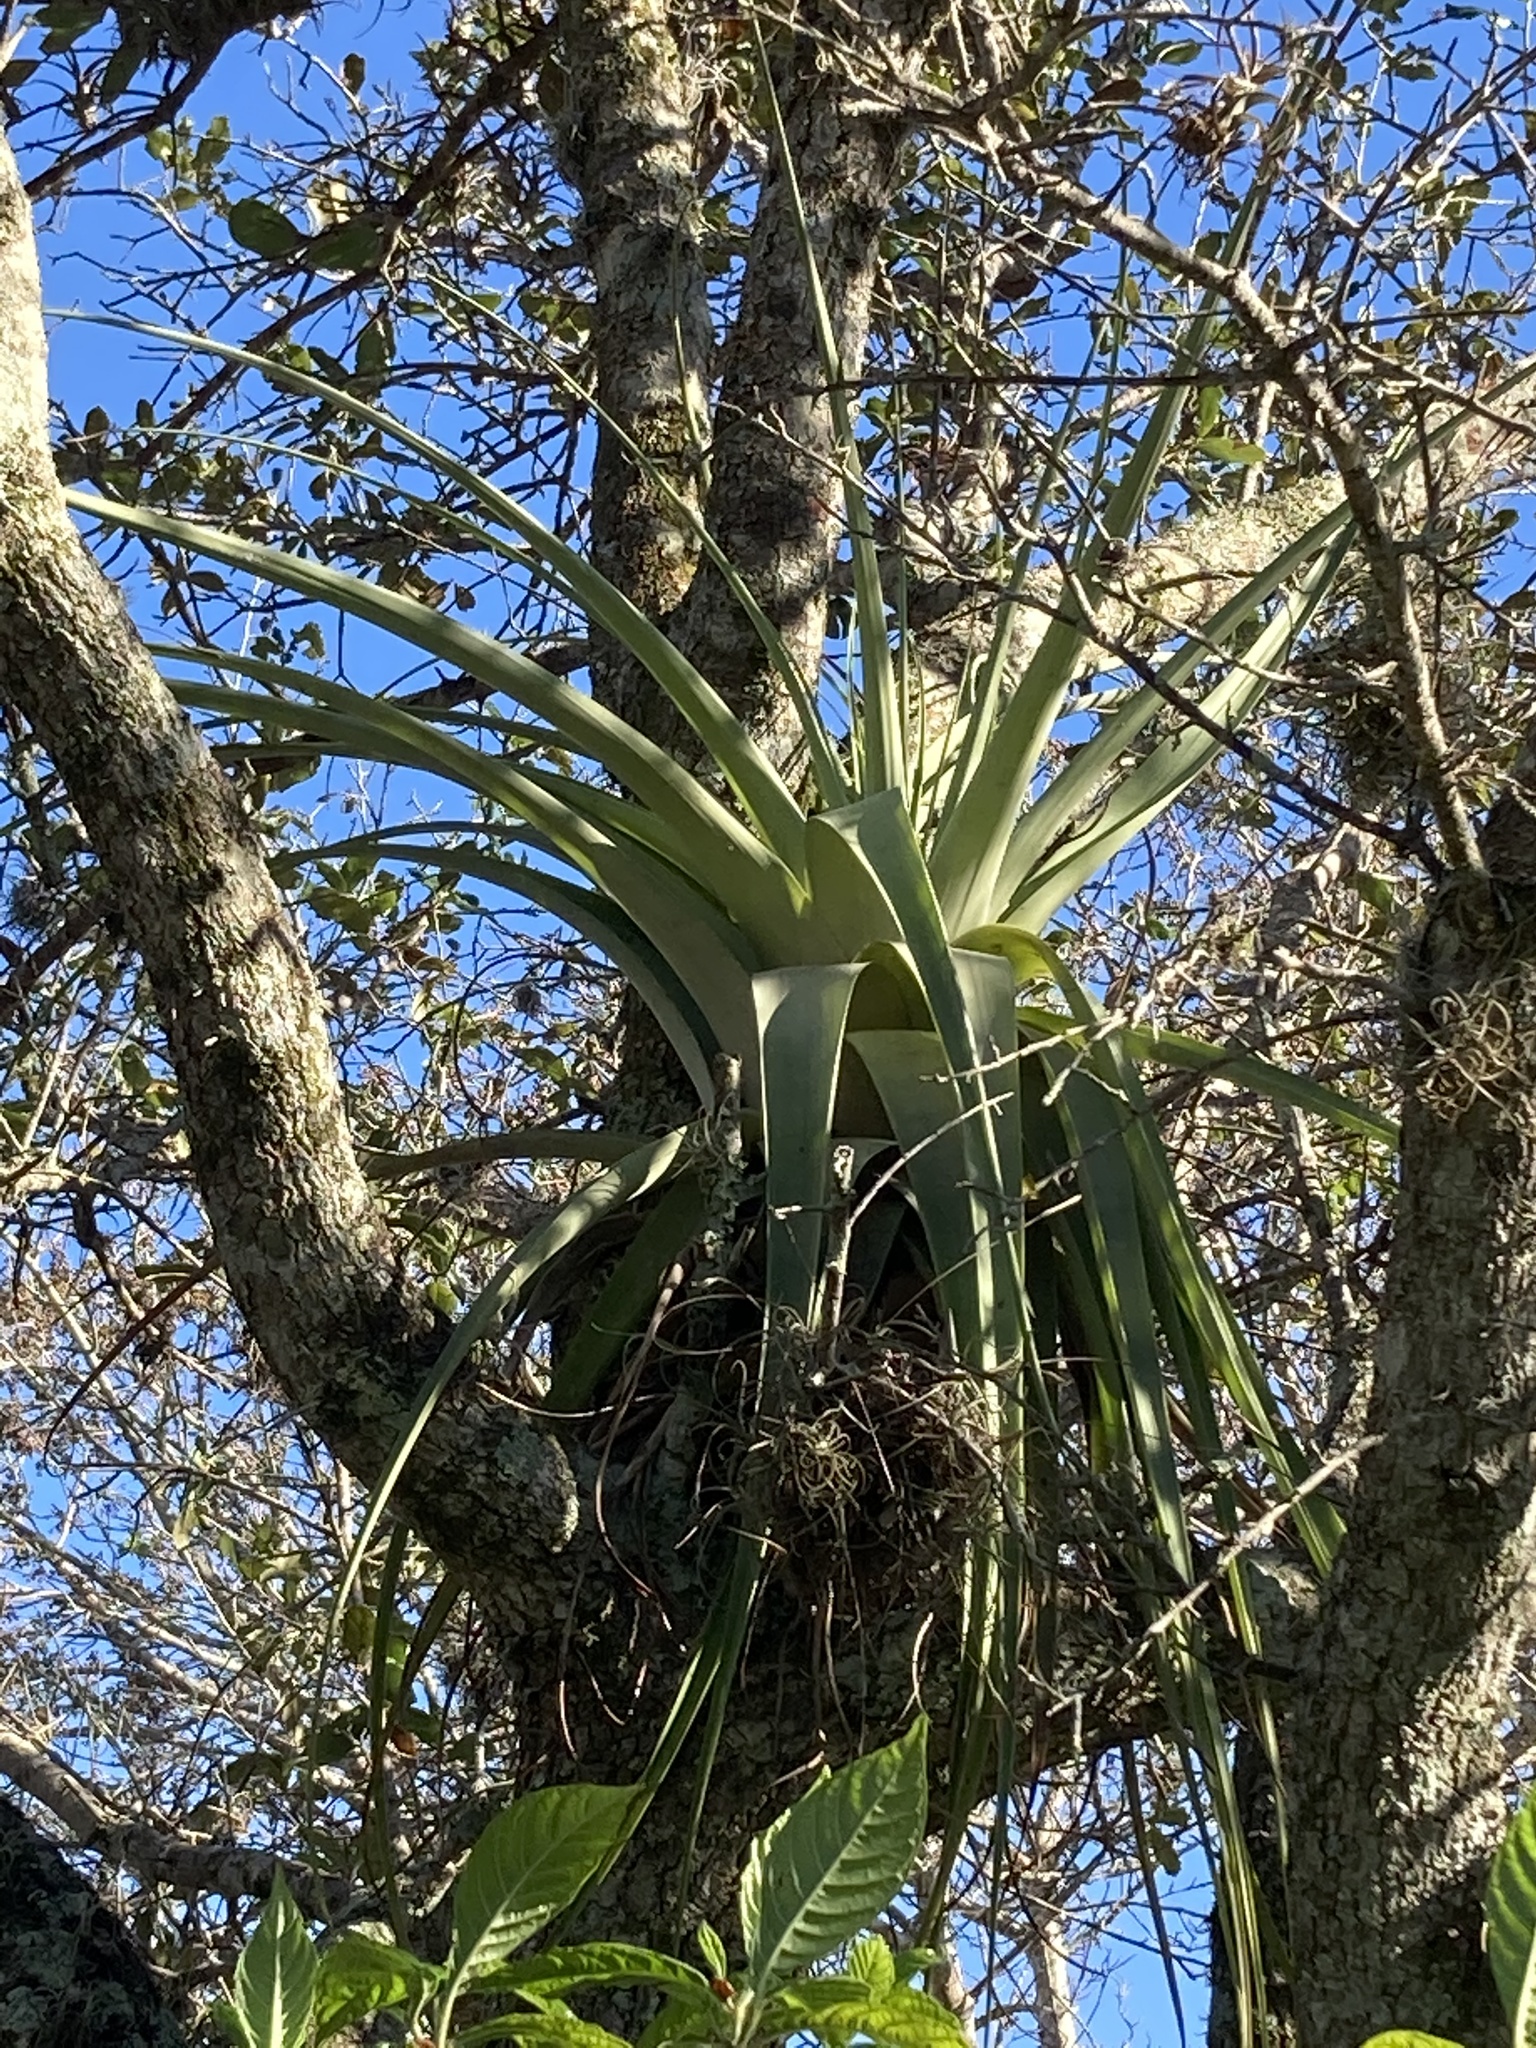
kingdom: Plantae
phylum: Tracheophyta
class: Liliopsida
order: Poales
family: Bromeliaceae
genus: Tillandsia
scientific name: Tillandsia utriculata
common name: Wild pine
